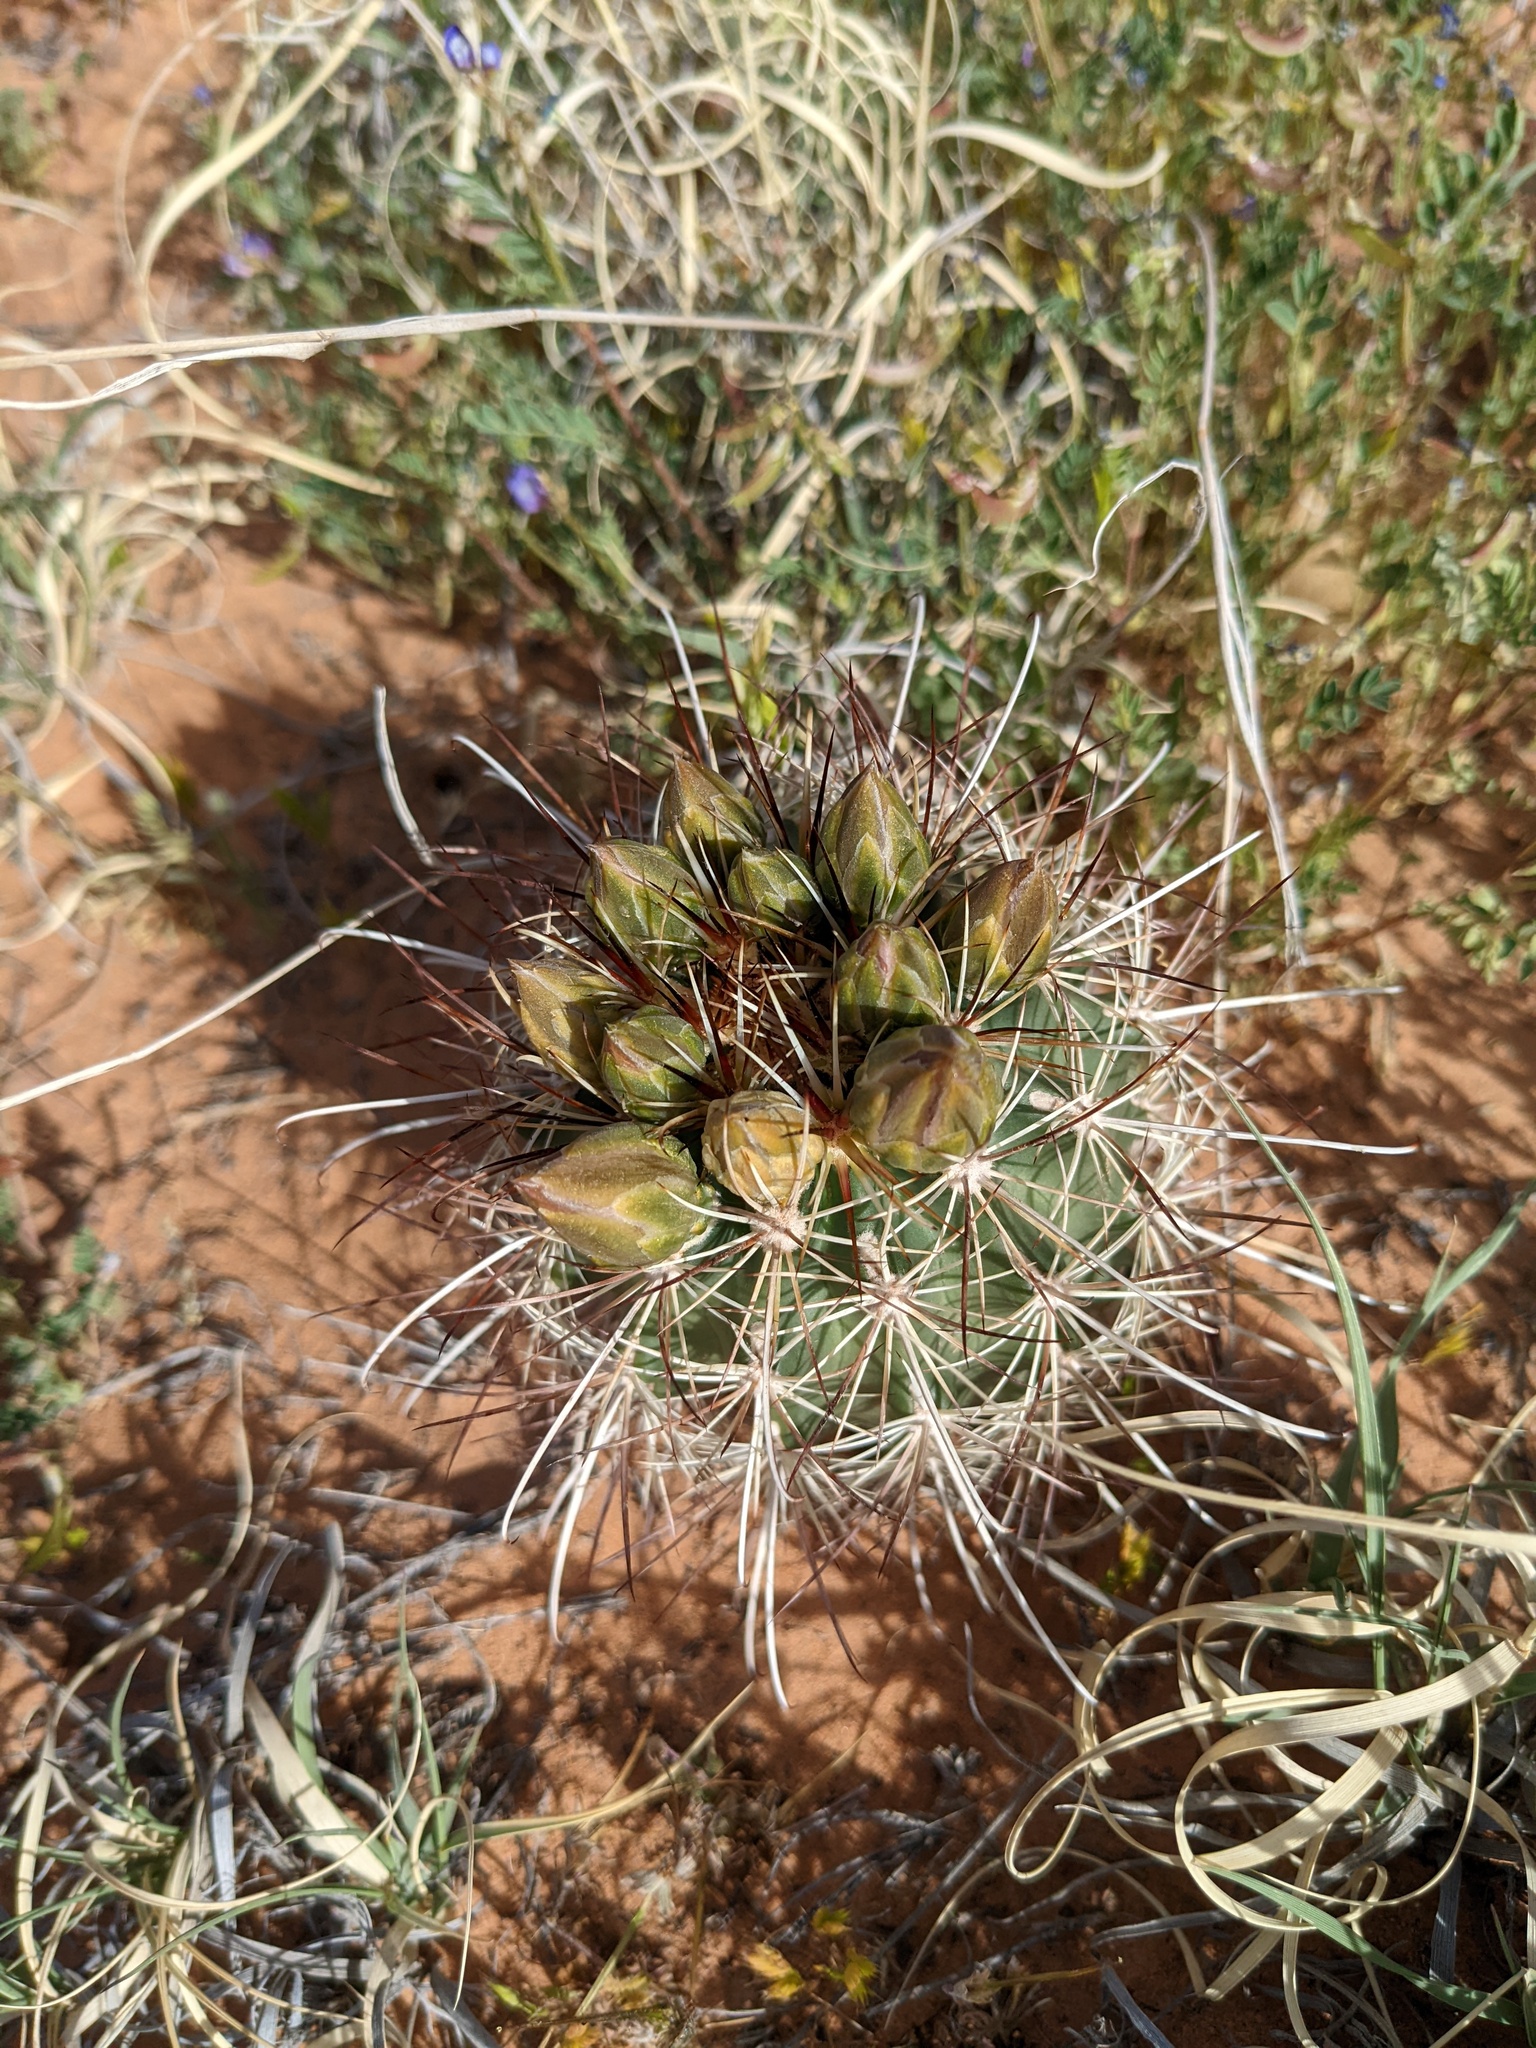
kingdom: Plantae
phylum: Tracheophyta
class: Magnoliopsida
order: Caryophyllales
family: Cactaceae
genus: Sclerocactus
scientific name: Sclerocactus parviflorus
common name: Small-flower fishhook cactus
